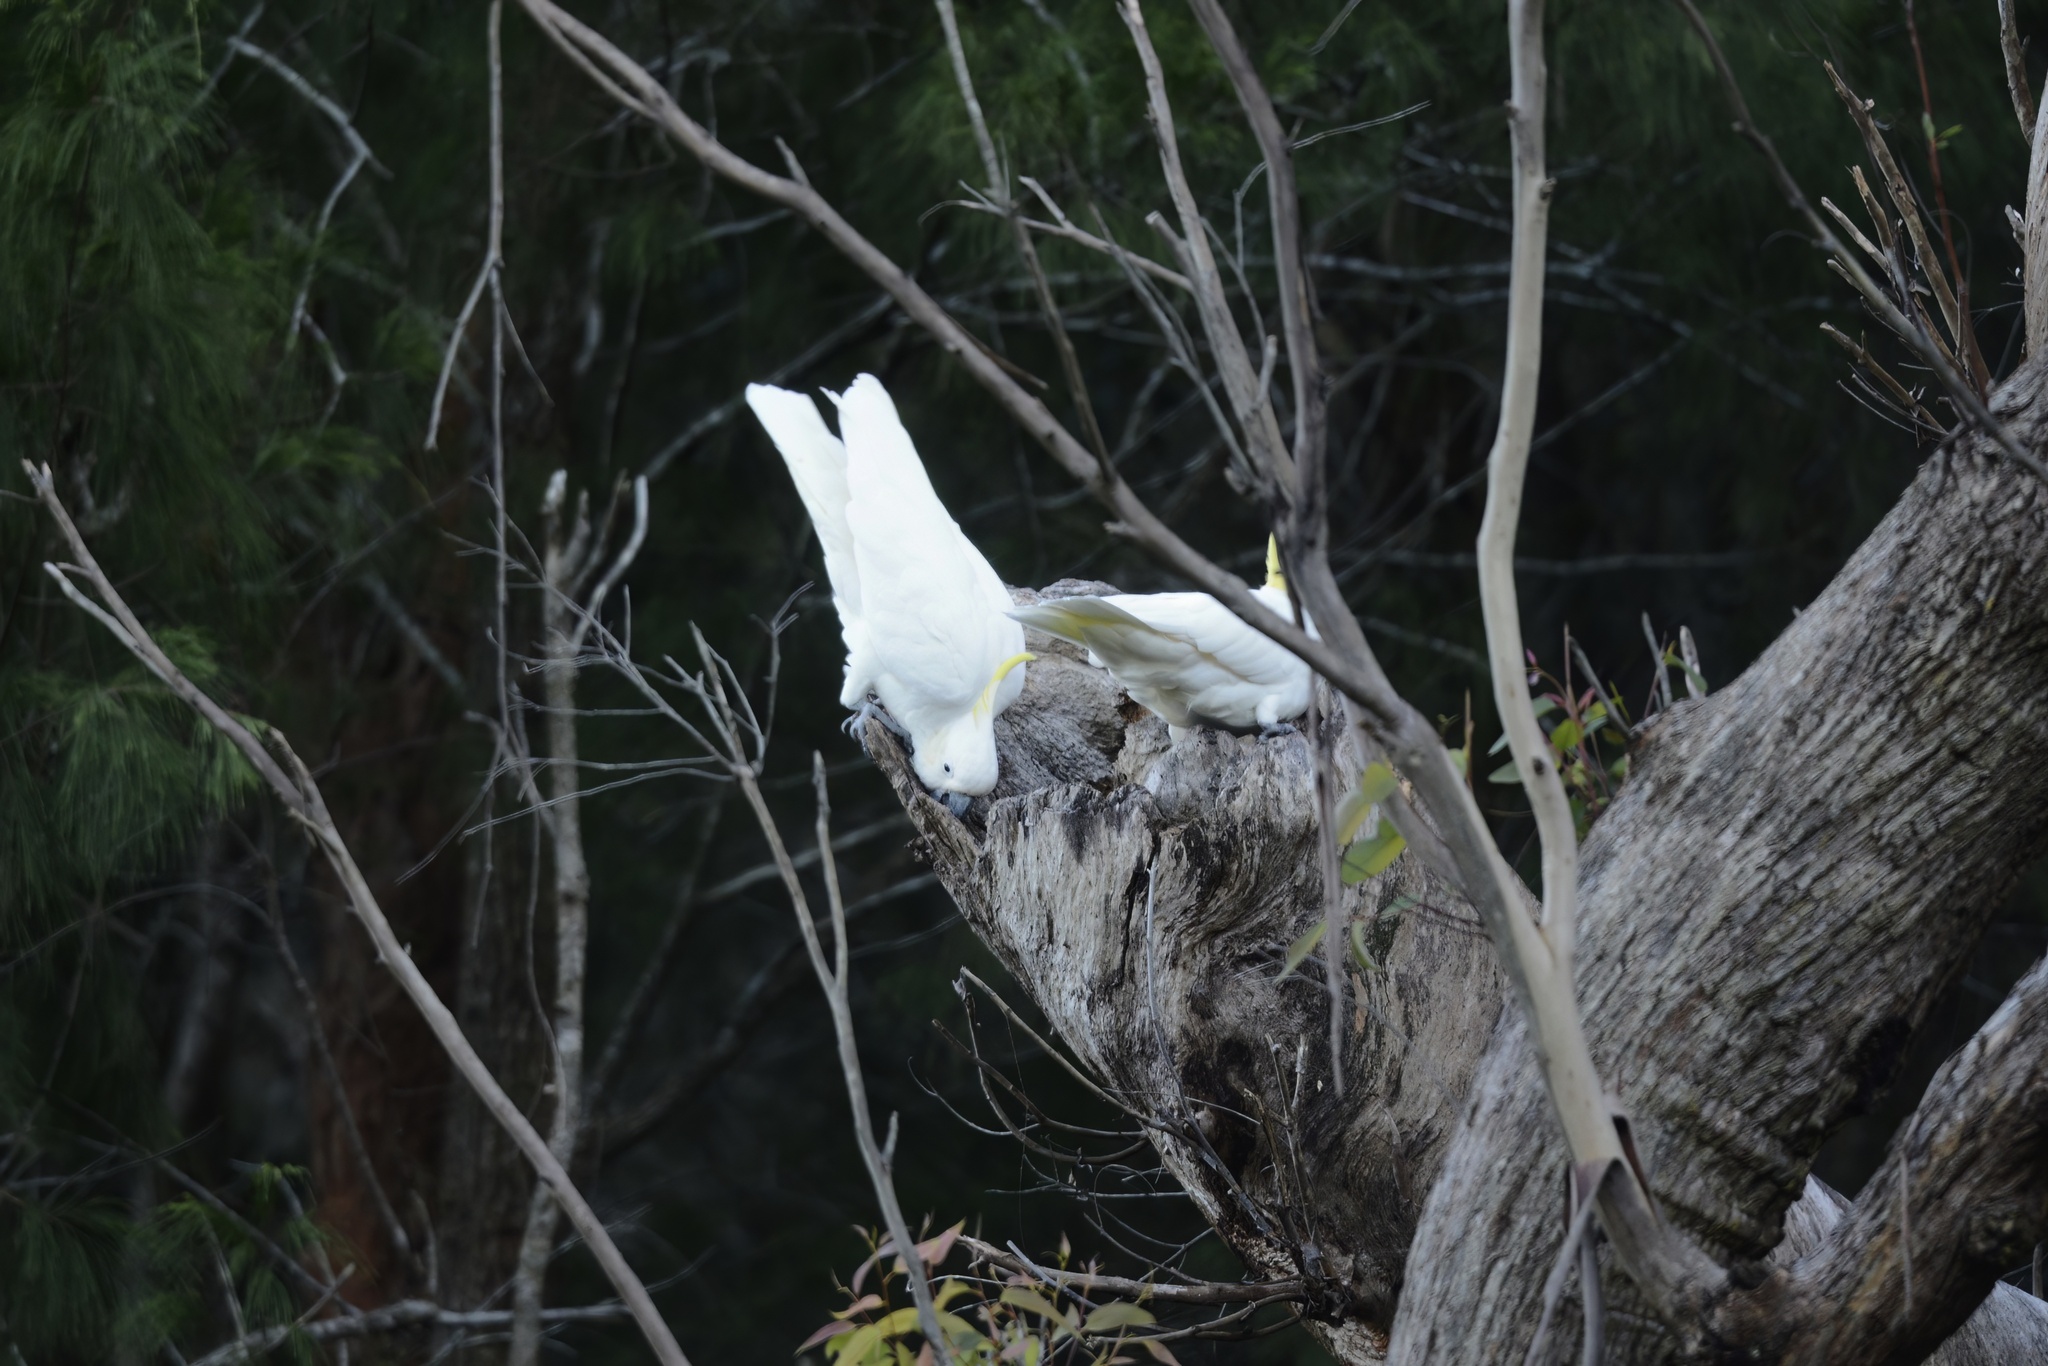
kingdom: Animalia
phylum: Chordata
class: Aves
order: Psittaciformes
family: Psittacidae
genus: Cacatua
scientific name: Cacatua galerita
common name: Sulphur-crested cockatoo
